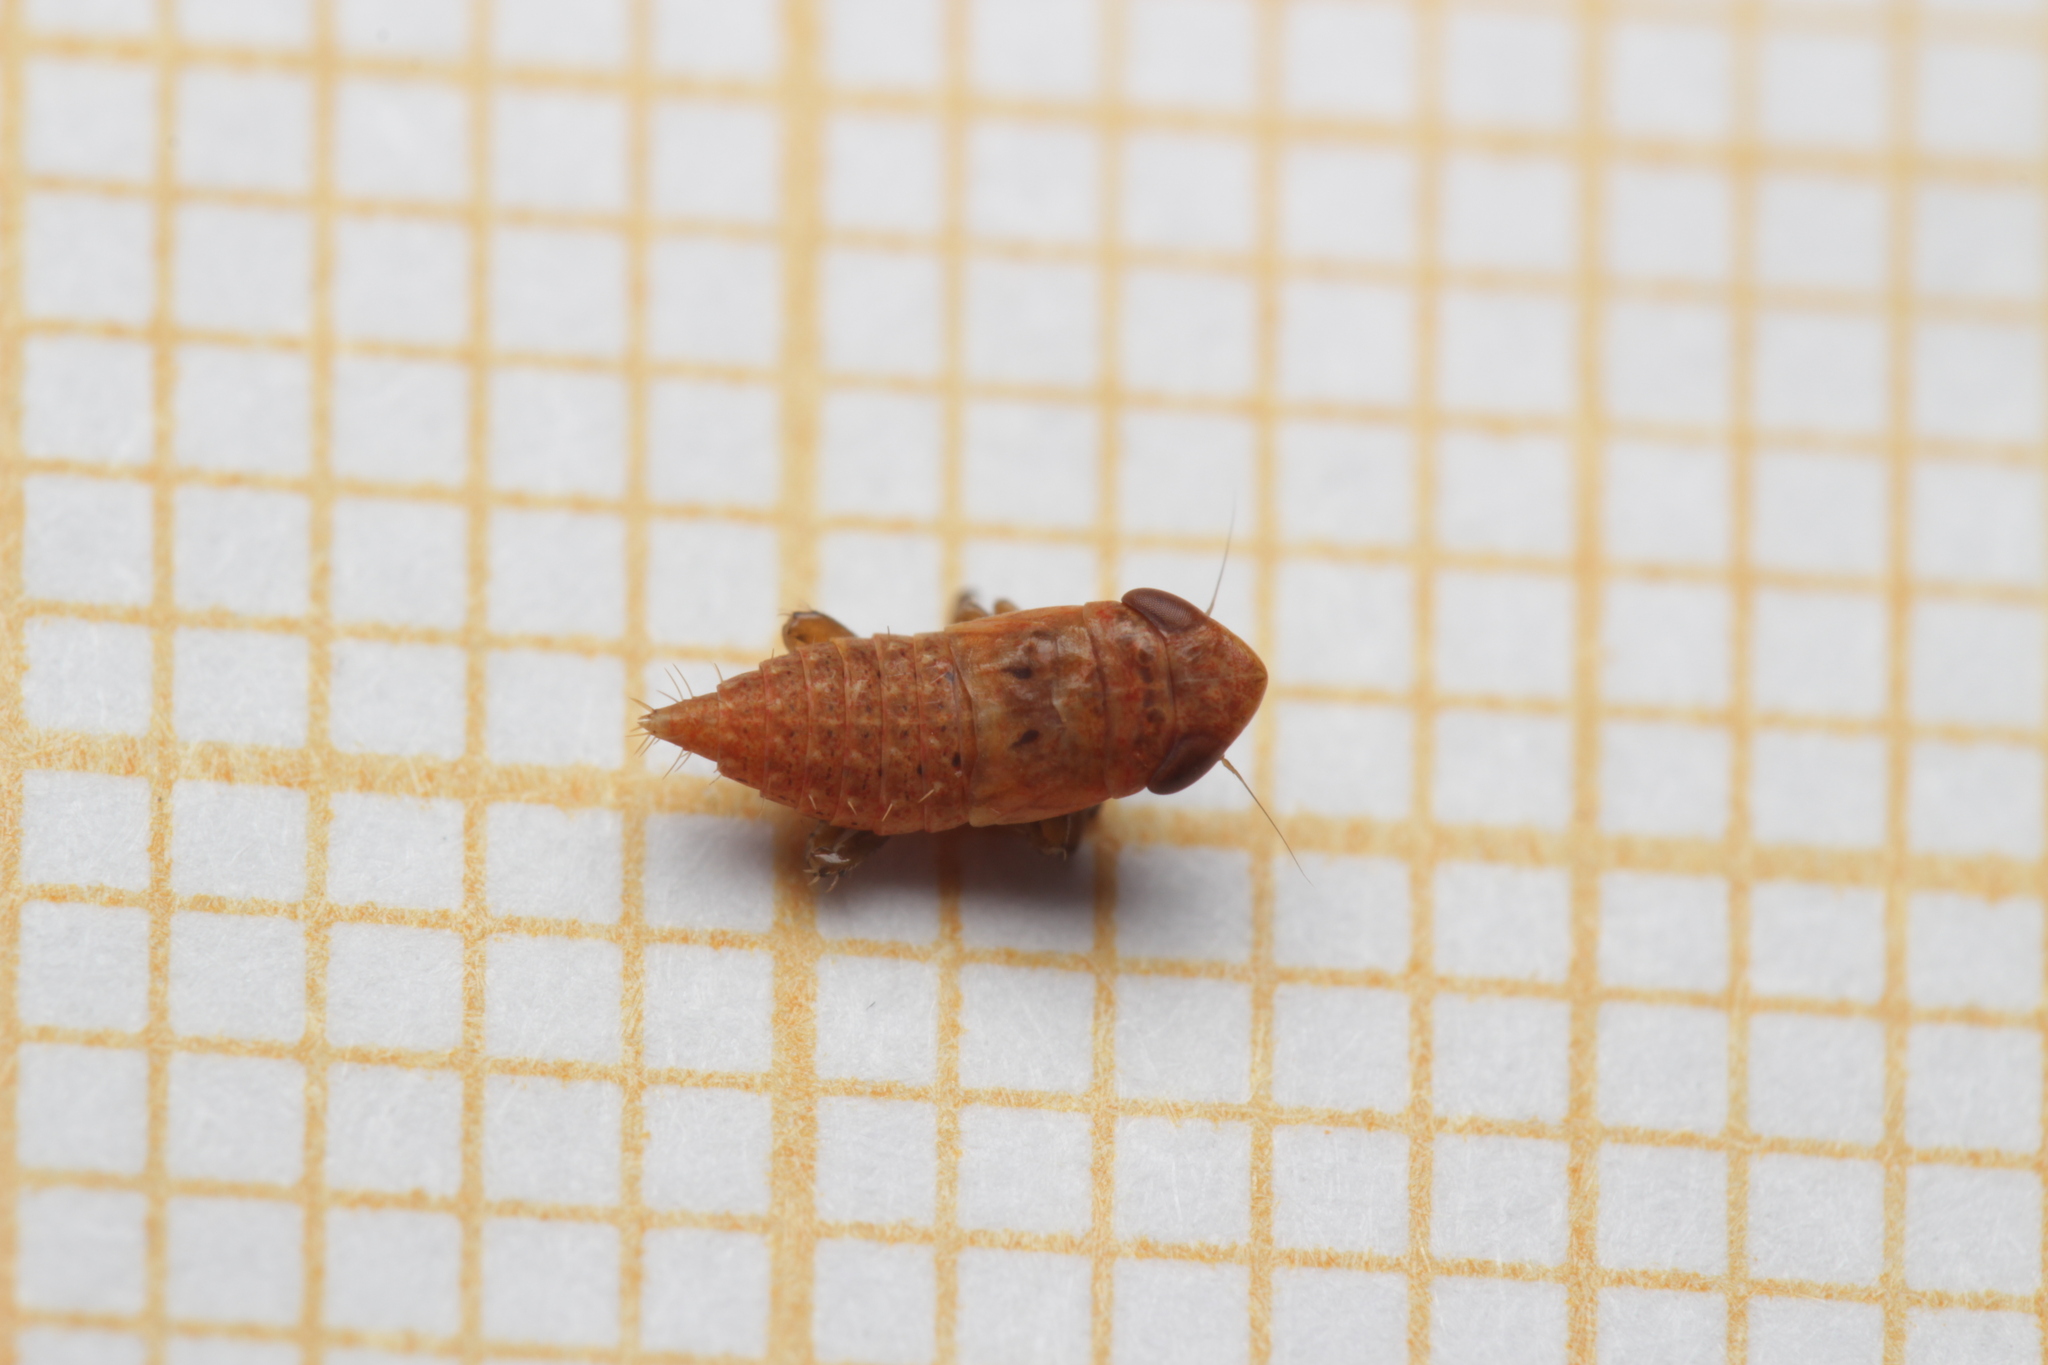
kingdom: Animalia
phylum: Arthropoda
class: Insecta
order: Hemiptera
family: Cicadellidae
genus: Thamnotettix
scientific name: Thamnotettix exemtus
